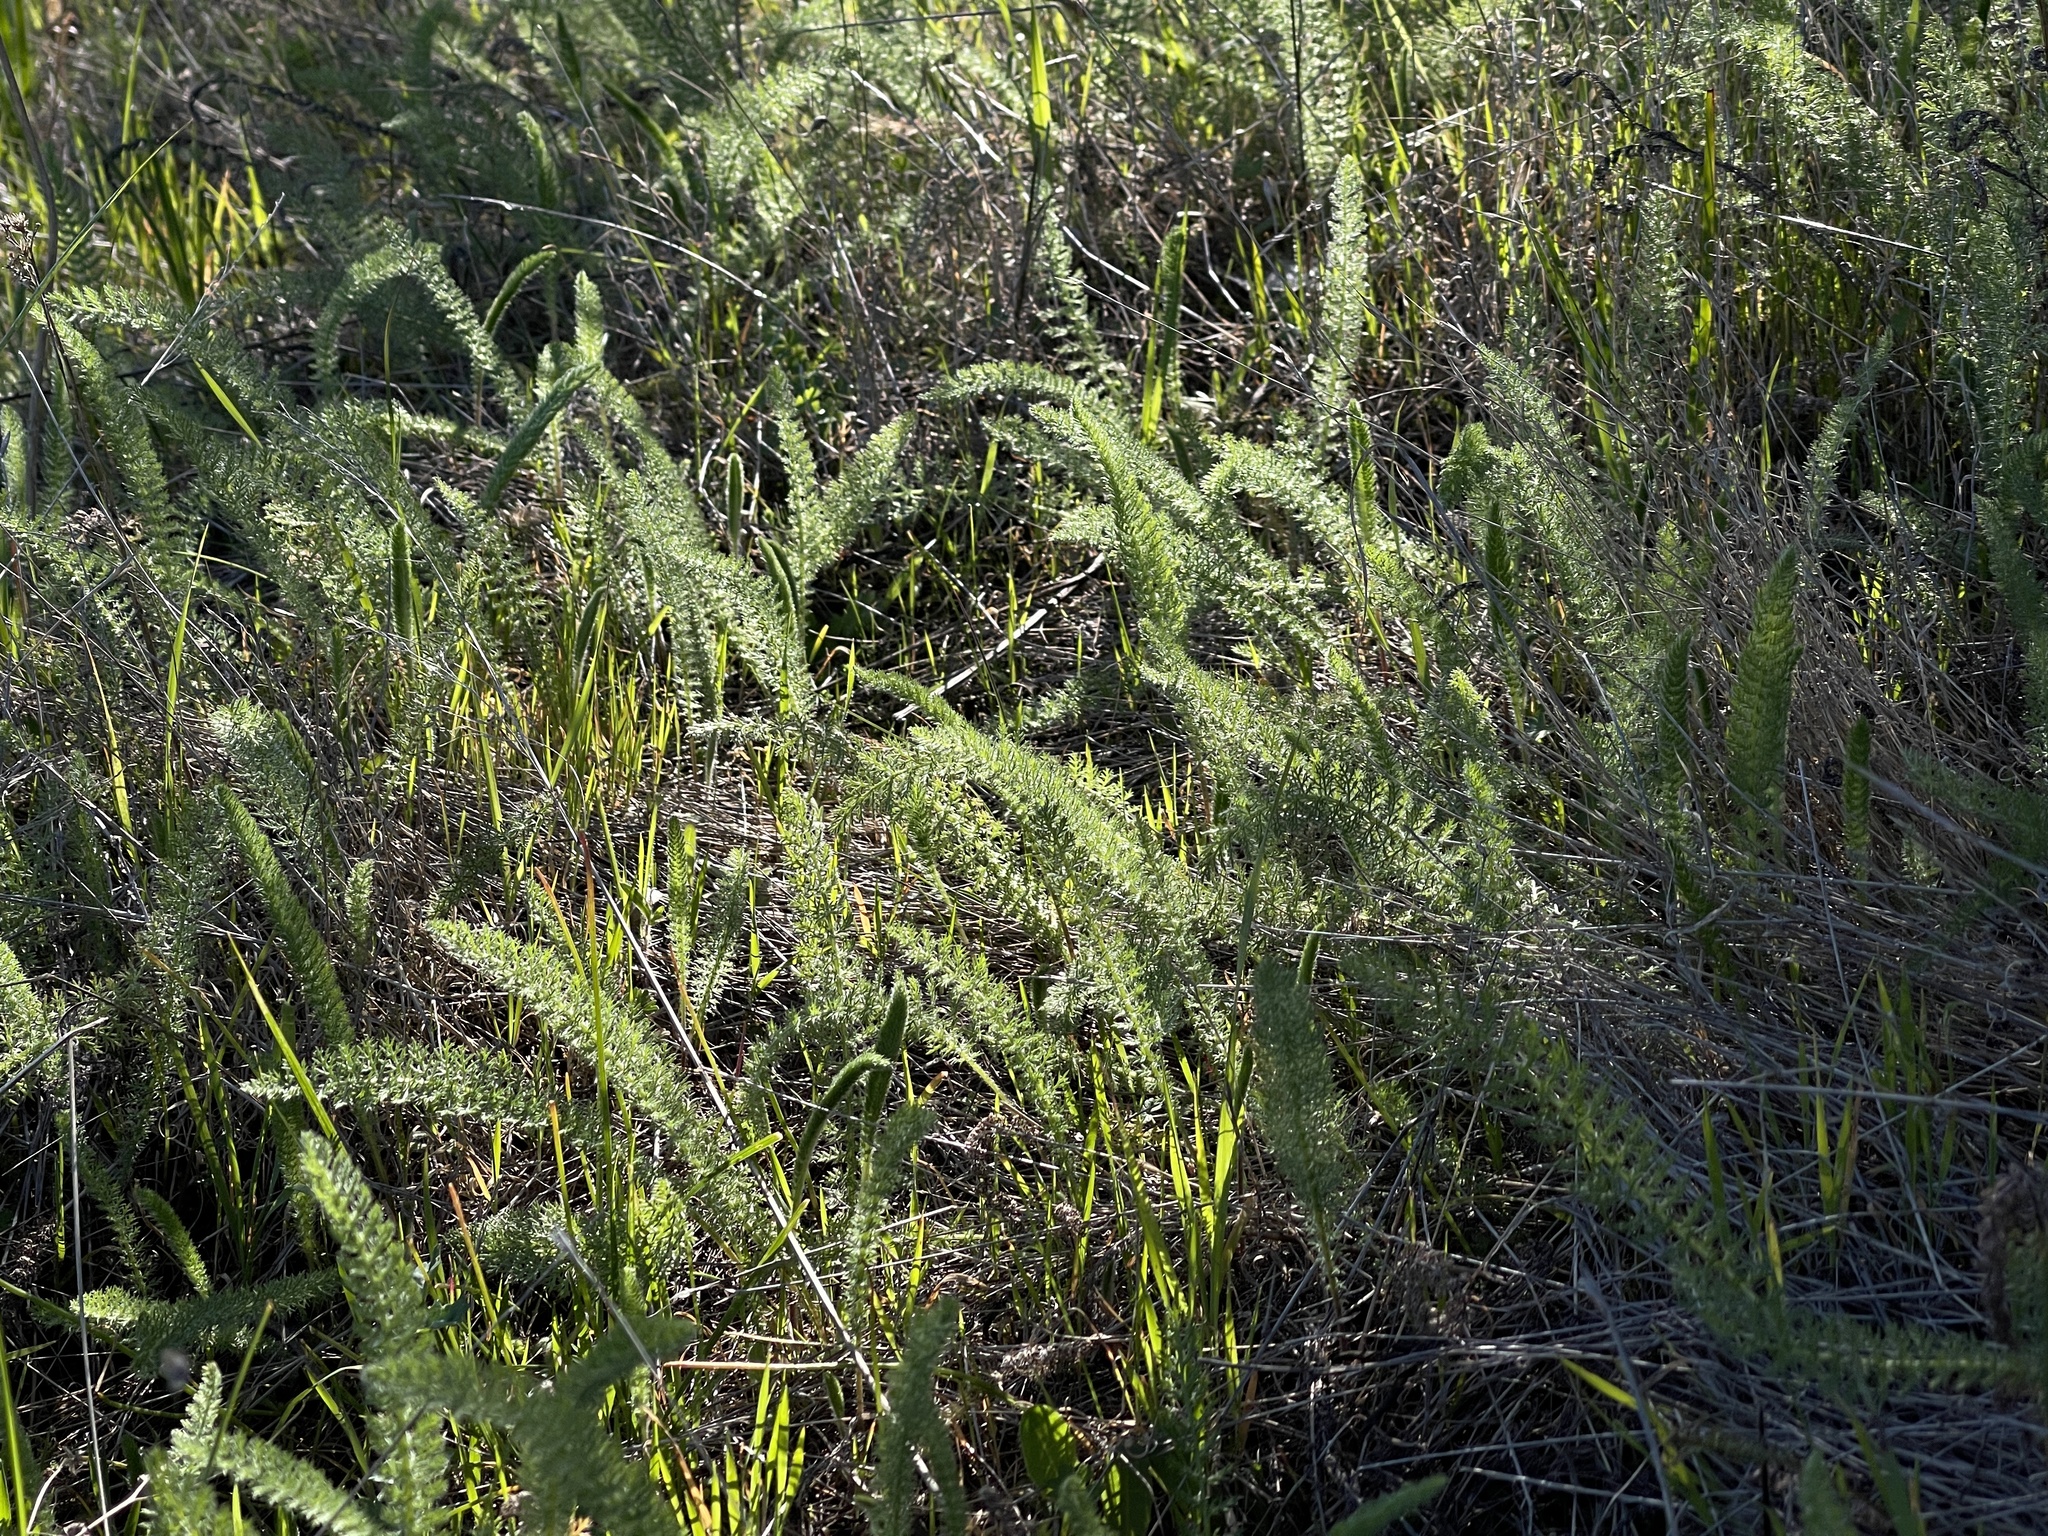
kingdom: Plantae
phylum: Tracheophyta
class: Magnoliopsida
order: Asterales
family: Asteraceae
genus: Achillea
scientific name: Achillea millefolium
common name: Yarrow
